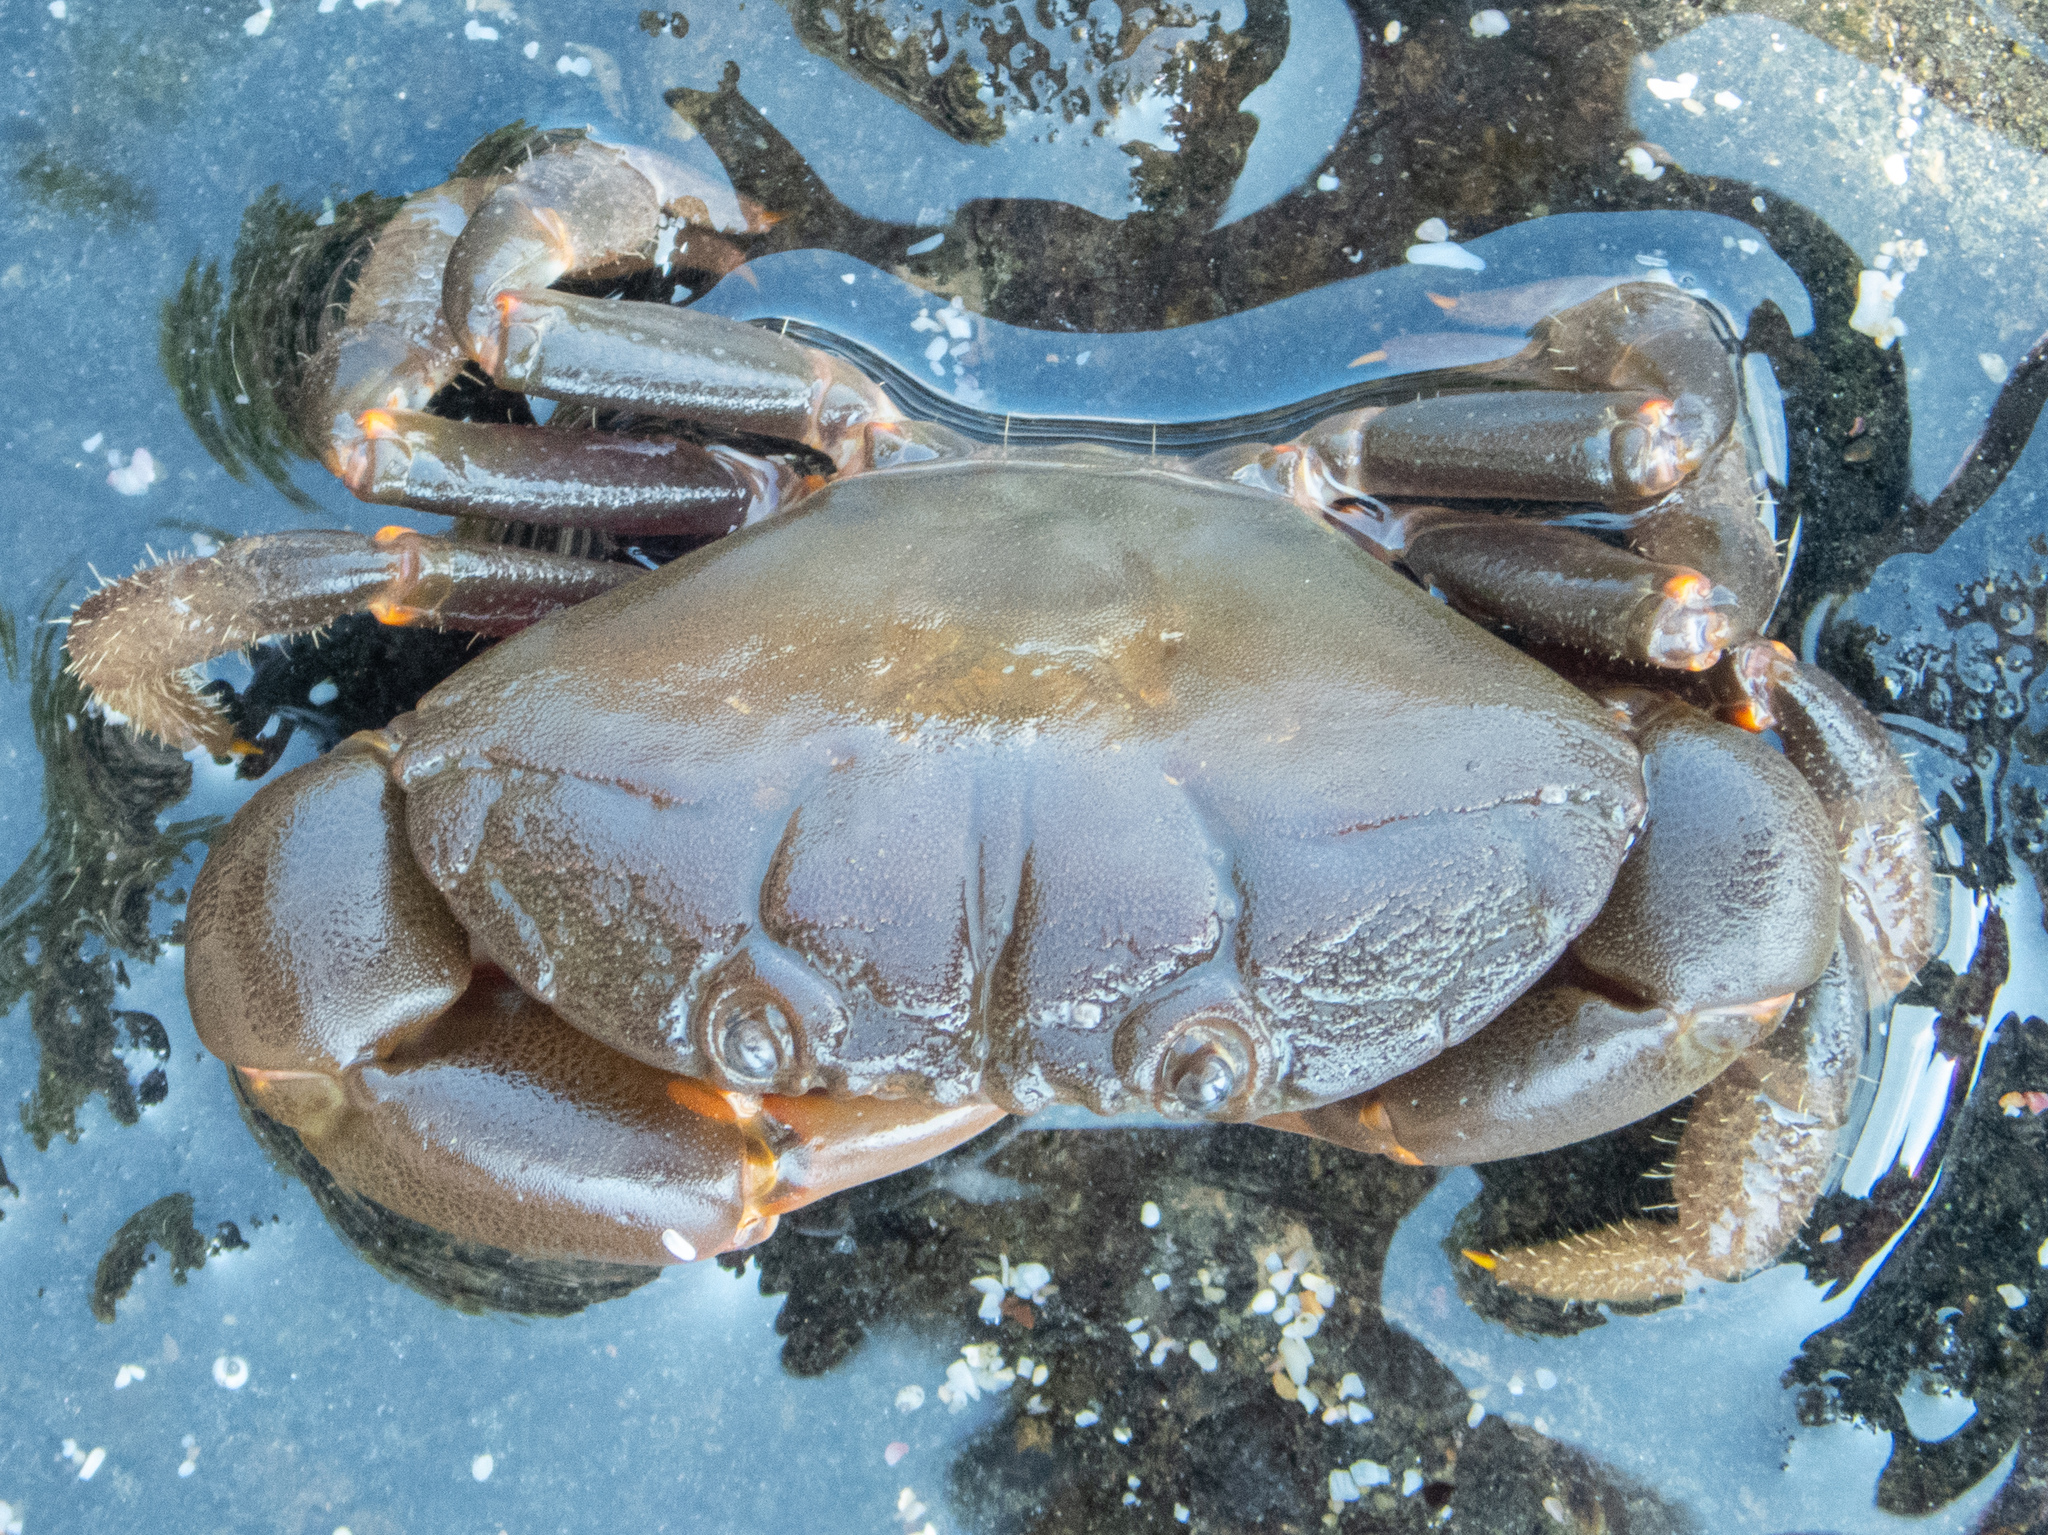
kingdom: Animalia
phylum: Arthropoda
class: Malacostraca
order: Decapoda
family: Oziidae
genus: Ozius
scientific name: Ozius verreauxii
